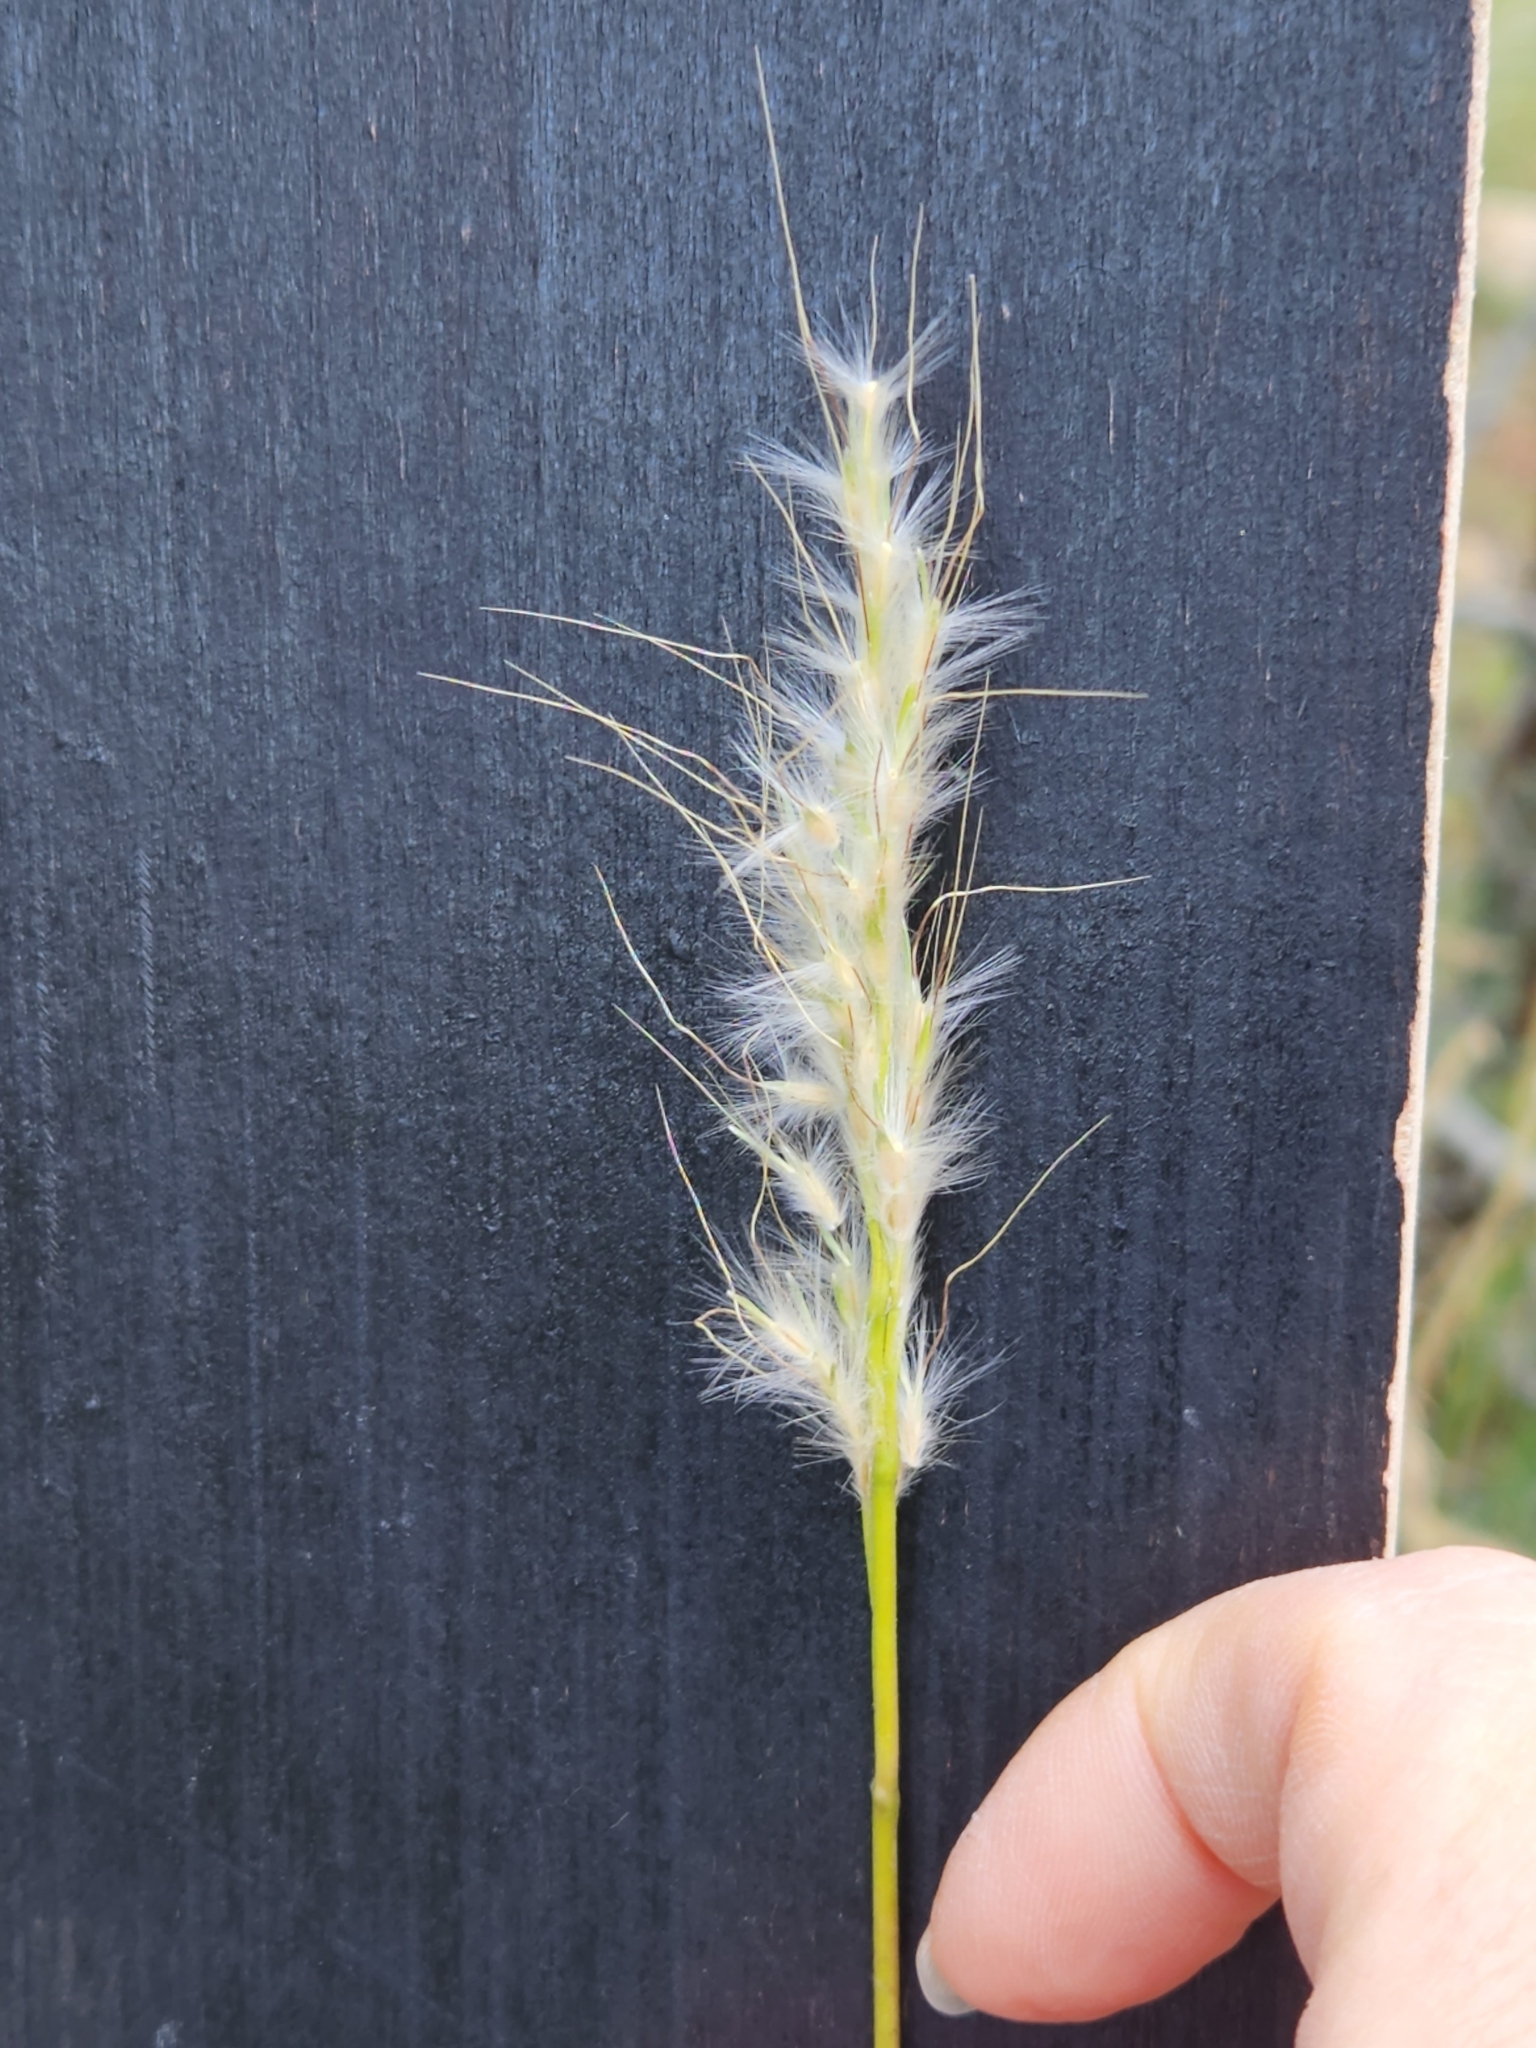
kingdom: Plantae
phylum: Tracheophyta
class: Liliopsida
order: Poales
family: Poaceae
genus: Bothriochloa
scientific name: Bothriochloa barbinodis
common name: Cane bluestem
